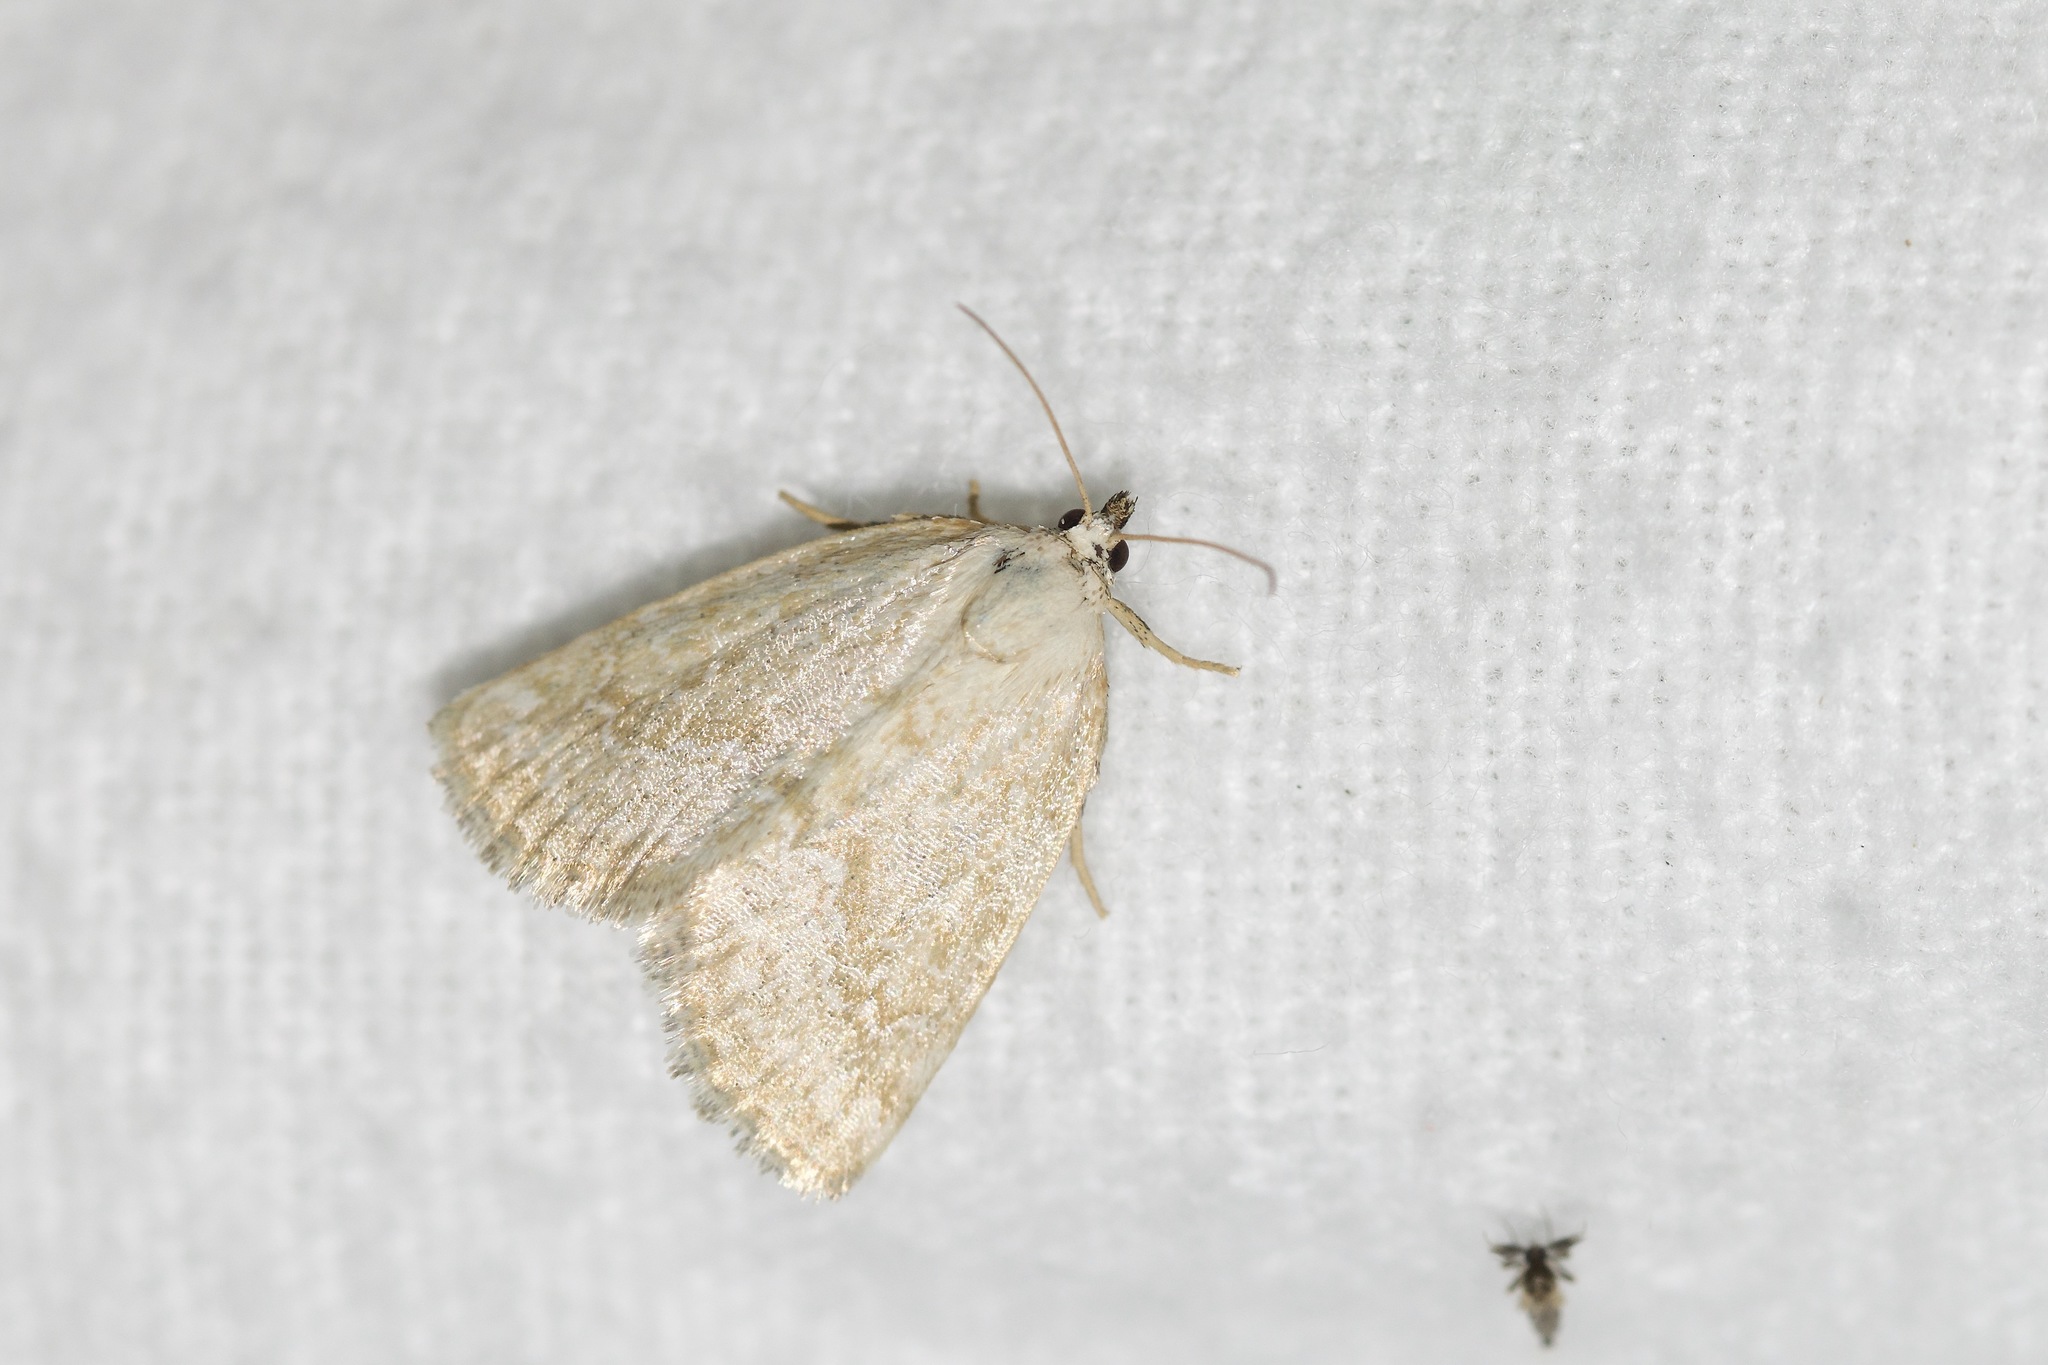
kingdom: Animalia
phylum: Arthropoda
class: Insecta
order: Lepidoptera
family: Noctuidae
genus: Protodeltote
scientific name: Protodeltote albidula
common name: Pale glyph
